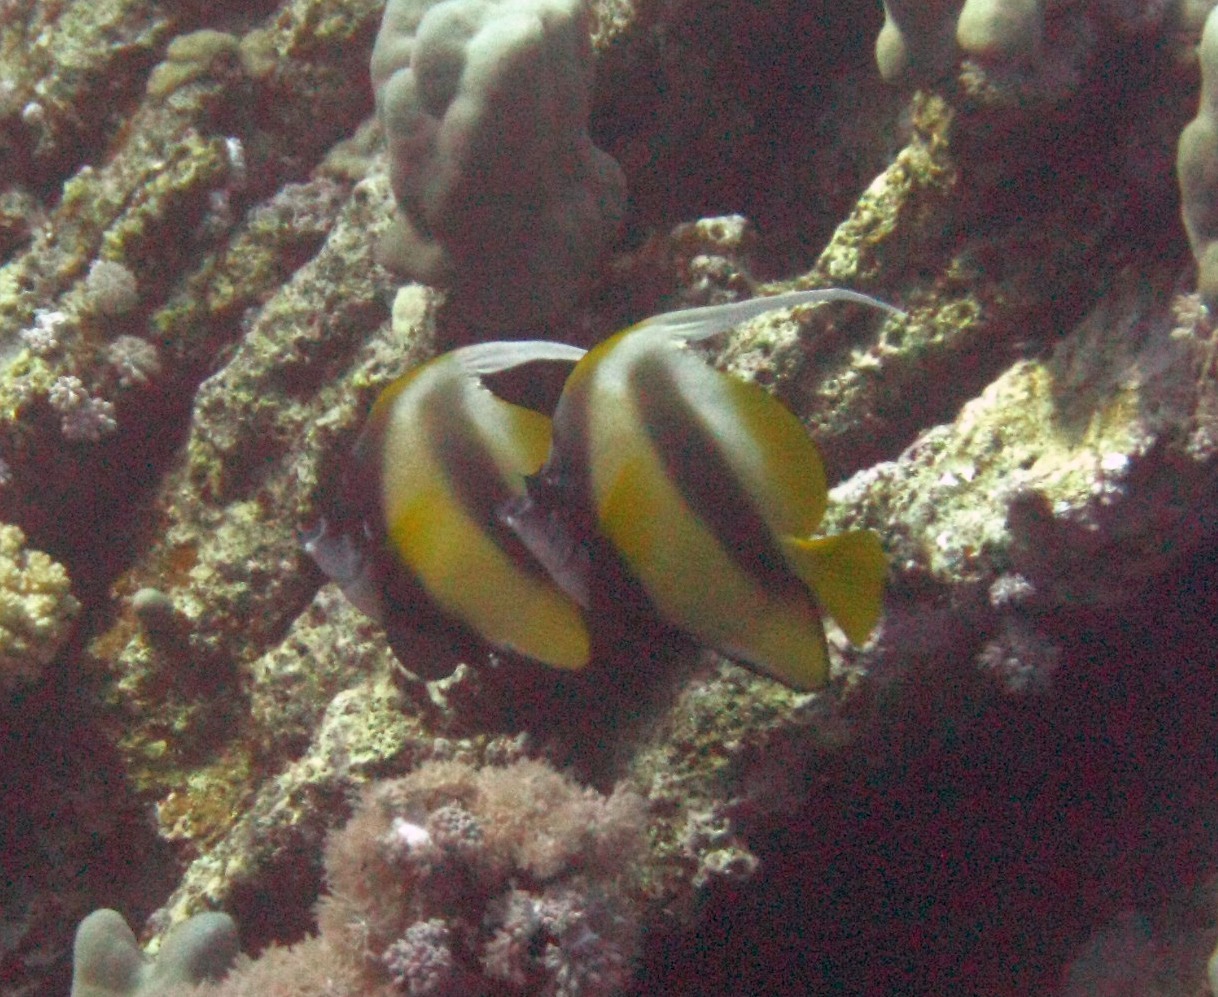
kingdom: Animalia
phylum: Chordata
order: Perciformes
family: Chaetodontidae
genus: Heniochus
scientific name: Heniochus intermedius
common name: Red sea bannerfish
